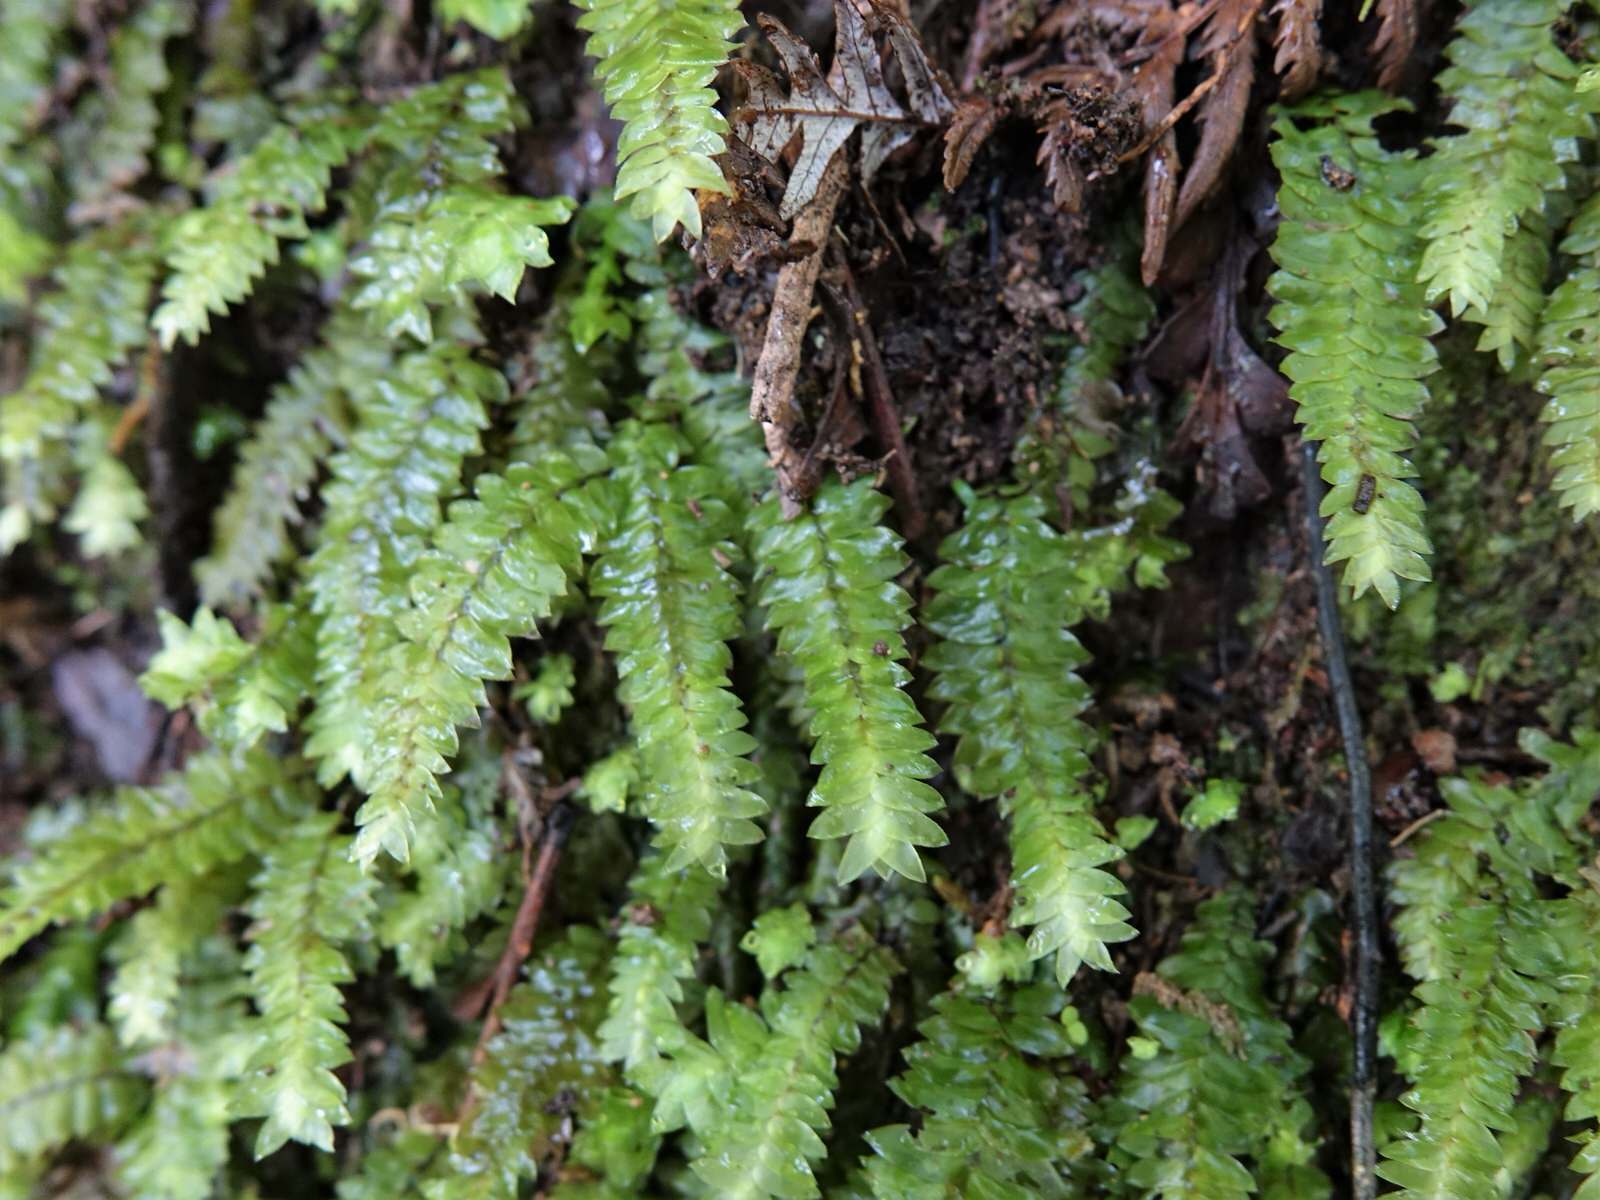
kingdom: Plantae
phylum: Bryophyta
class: Bryopsida
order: Hypopterygiales
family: Hypopterygiaceae
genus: Cyathophorum
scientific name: Cyathophorum bulbosum
